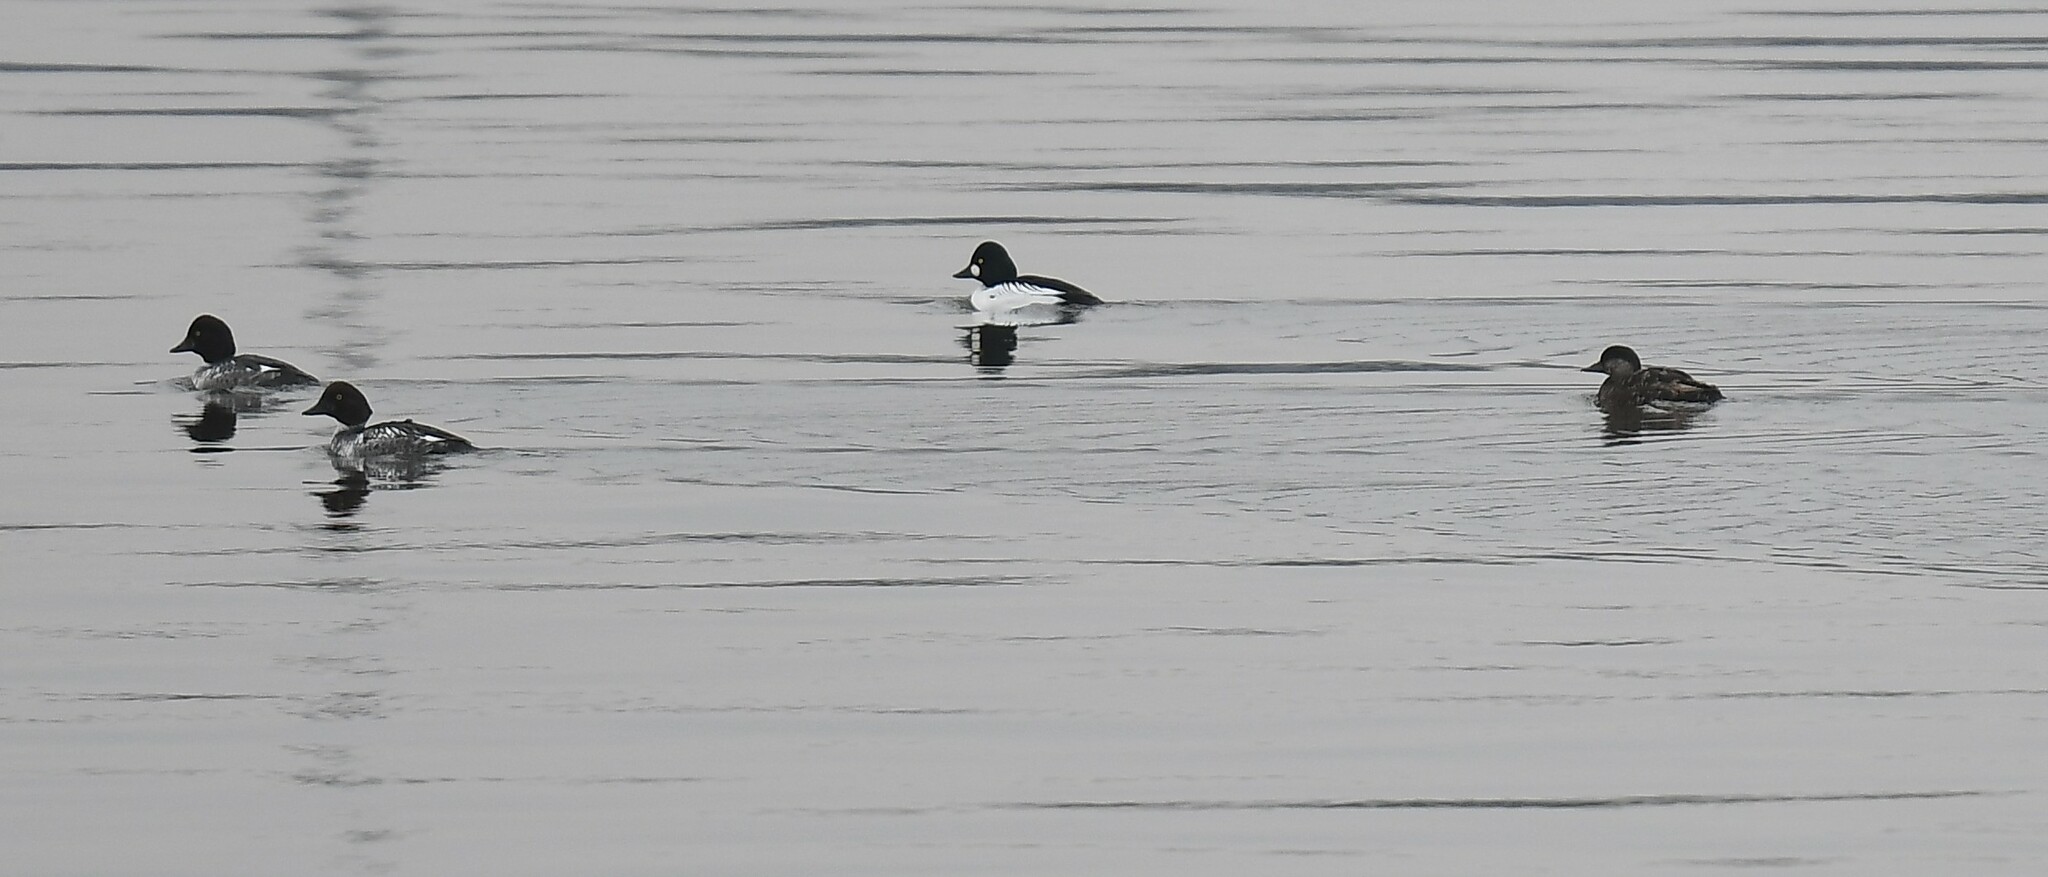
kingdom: Animalia
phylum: Chordata
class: Aves
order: Anseriformes
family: Anatidae
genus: Melanitta
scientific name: Melanitta americana
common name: Black scoter
